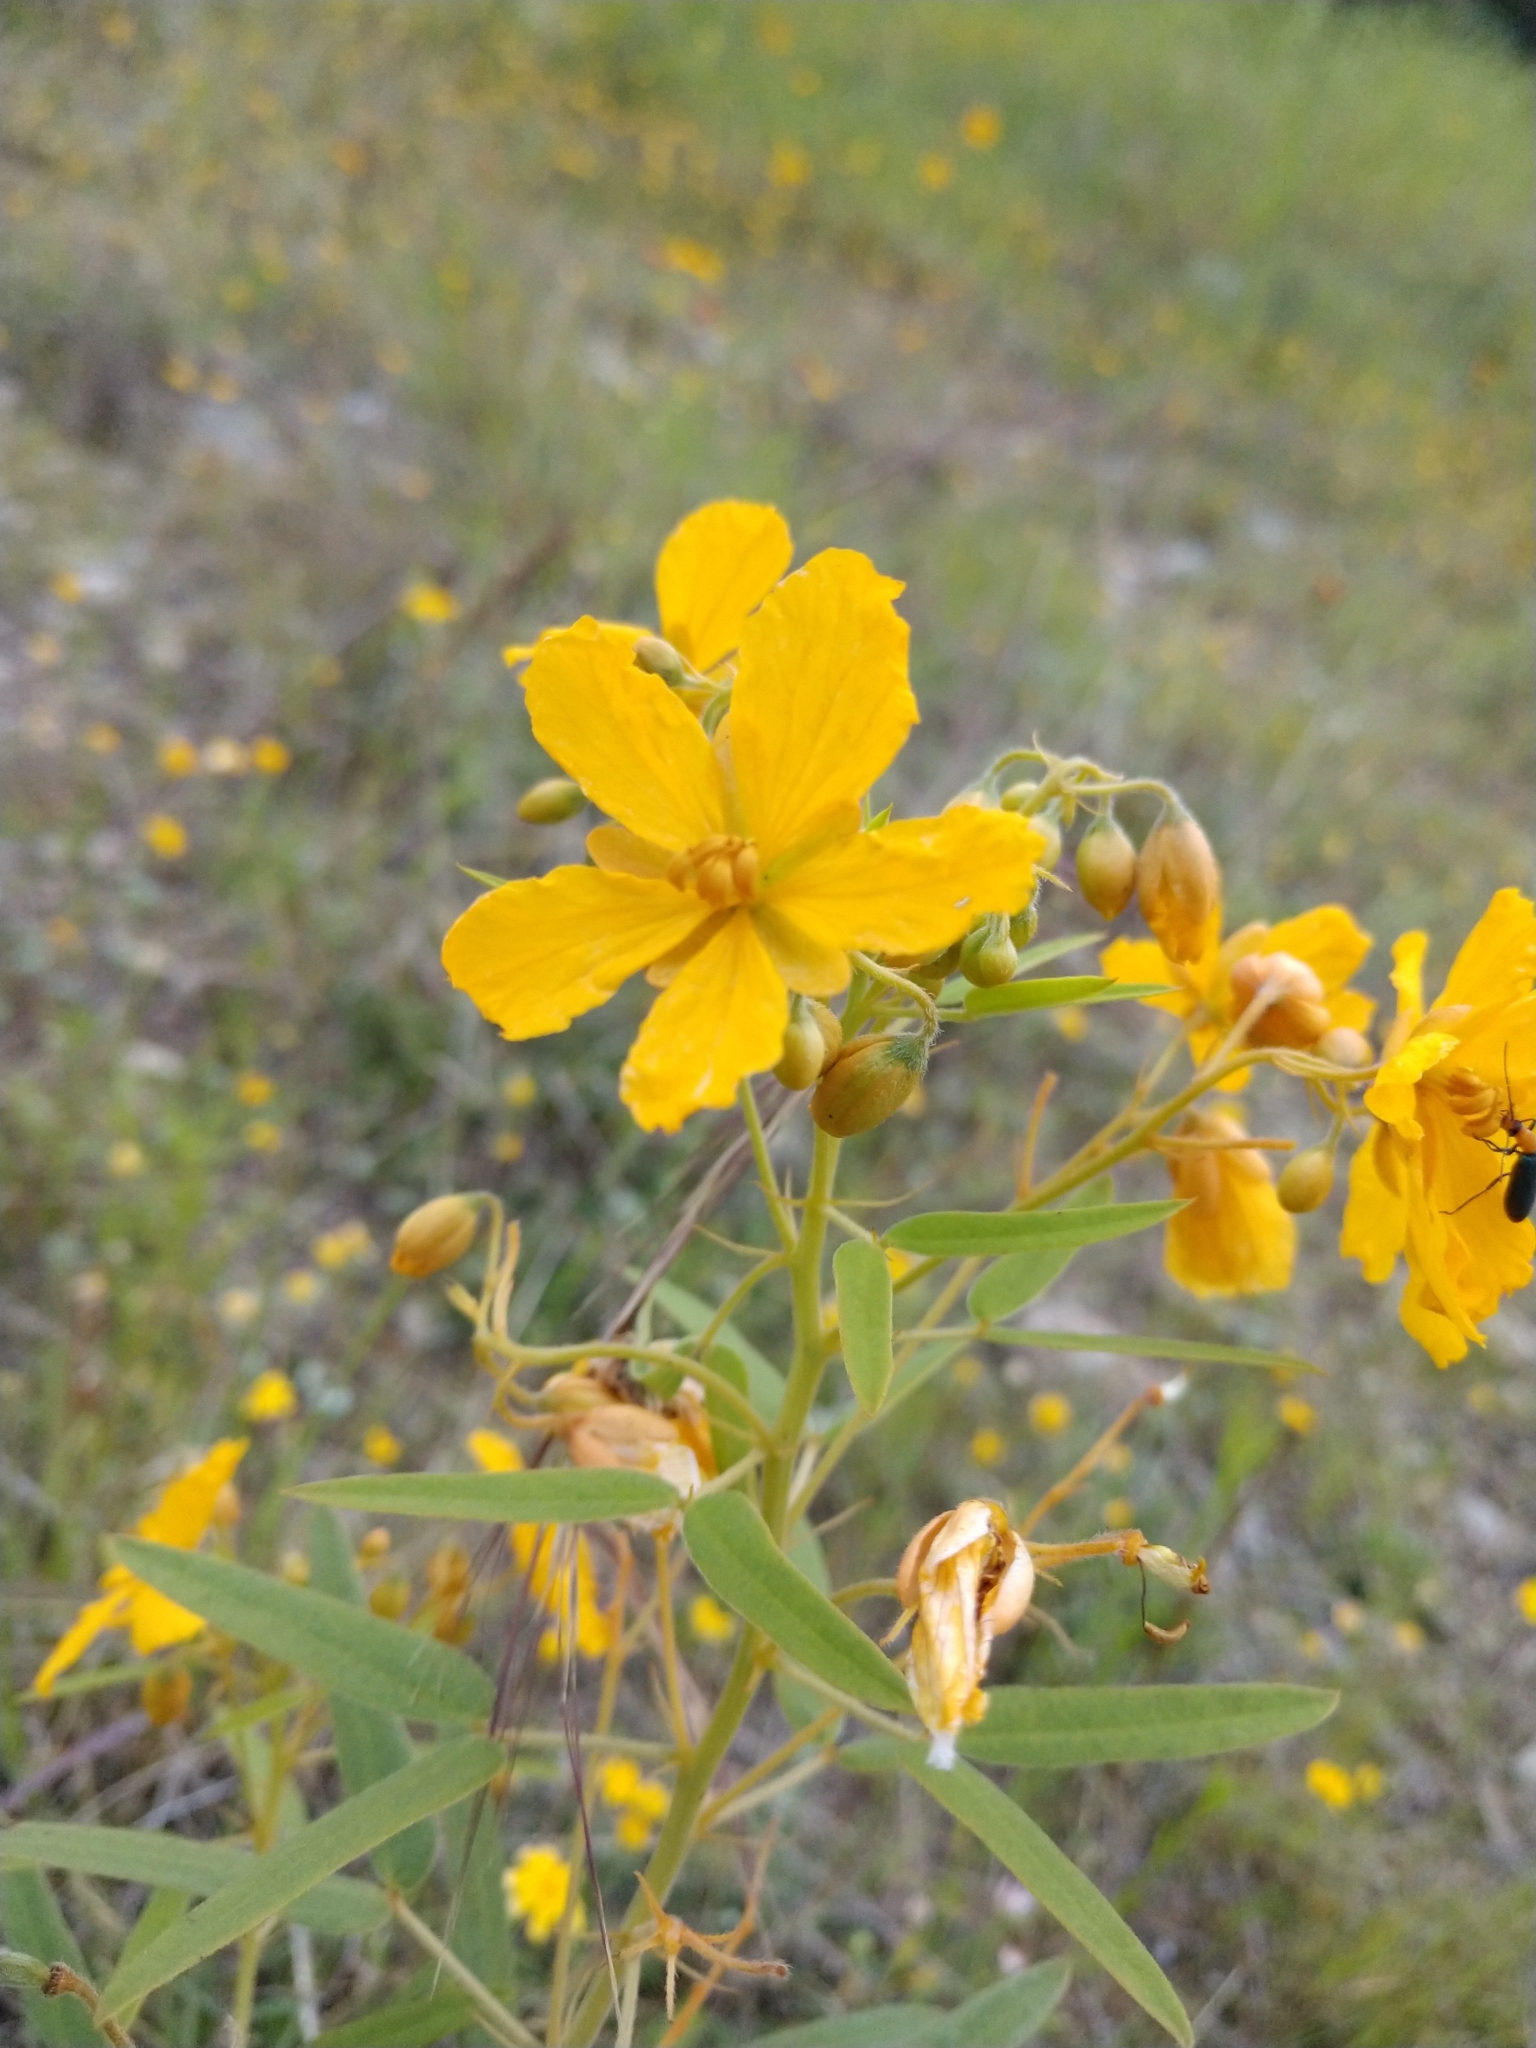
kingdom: Plantae
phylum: Tracheophyta
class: Magnoliopsida
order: Fabales
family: Fabaceae
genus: Senna
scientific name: Senna roemeriana
